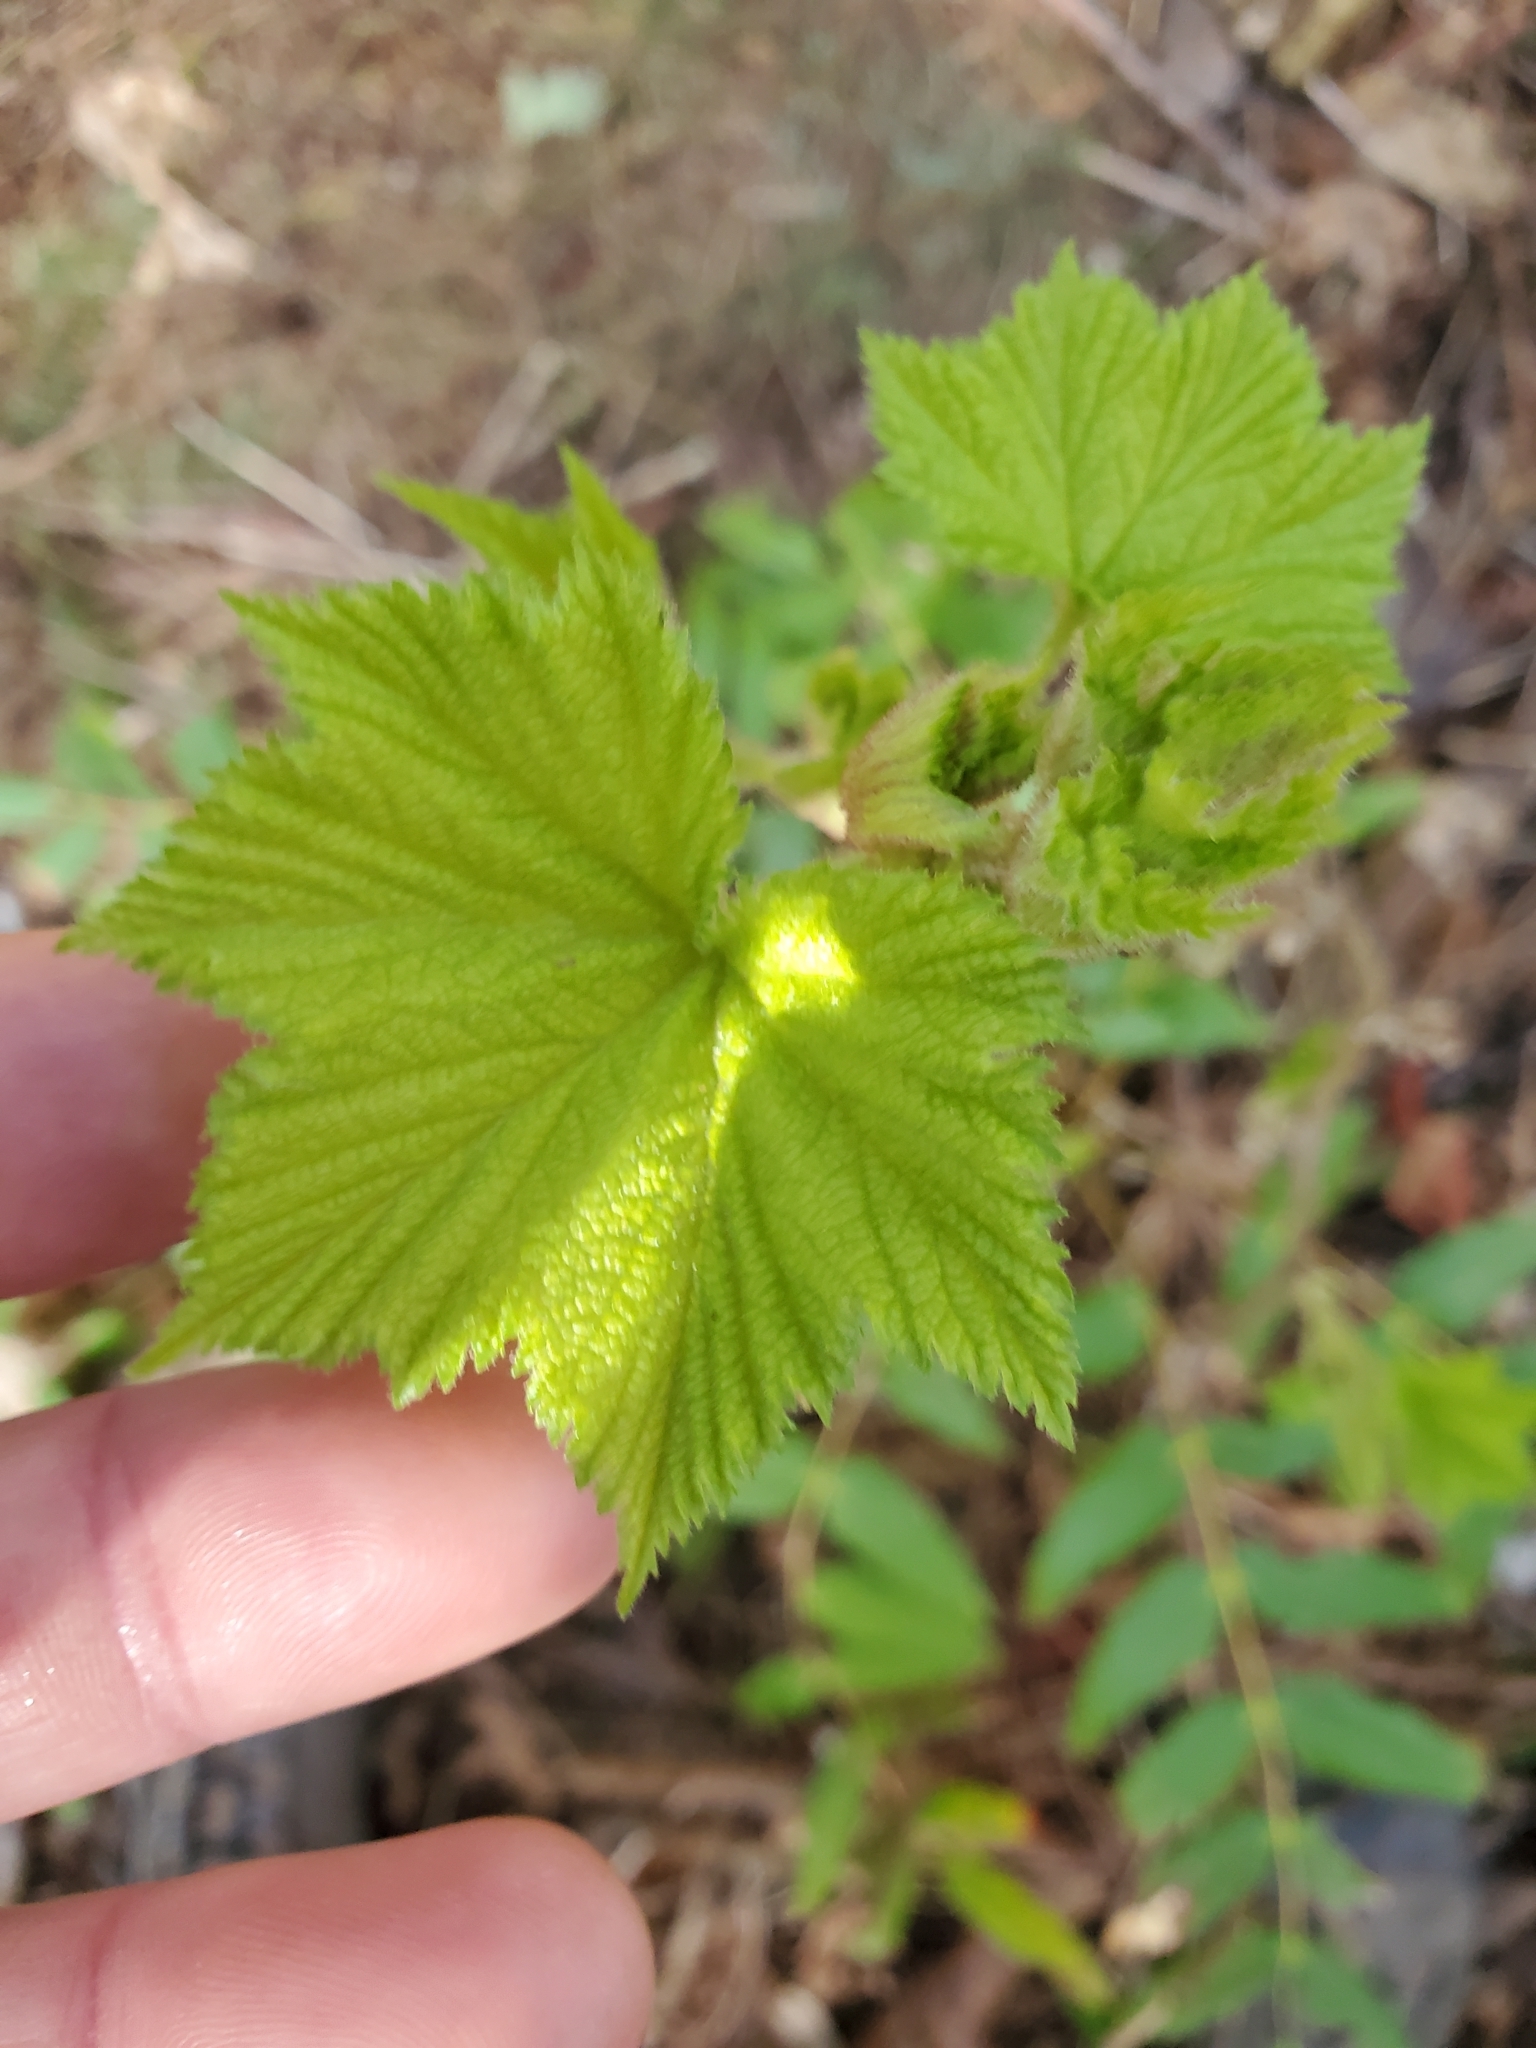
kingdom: Plantae
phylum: Tracheophyta
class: Magnoliopsida
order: Rosales
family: Rosaceae
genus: Rubus
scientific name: Rubus parviflorus
